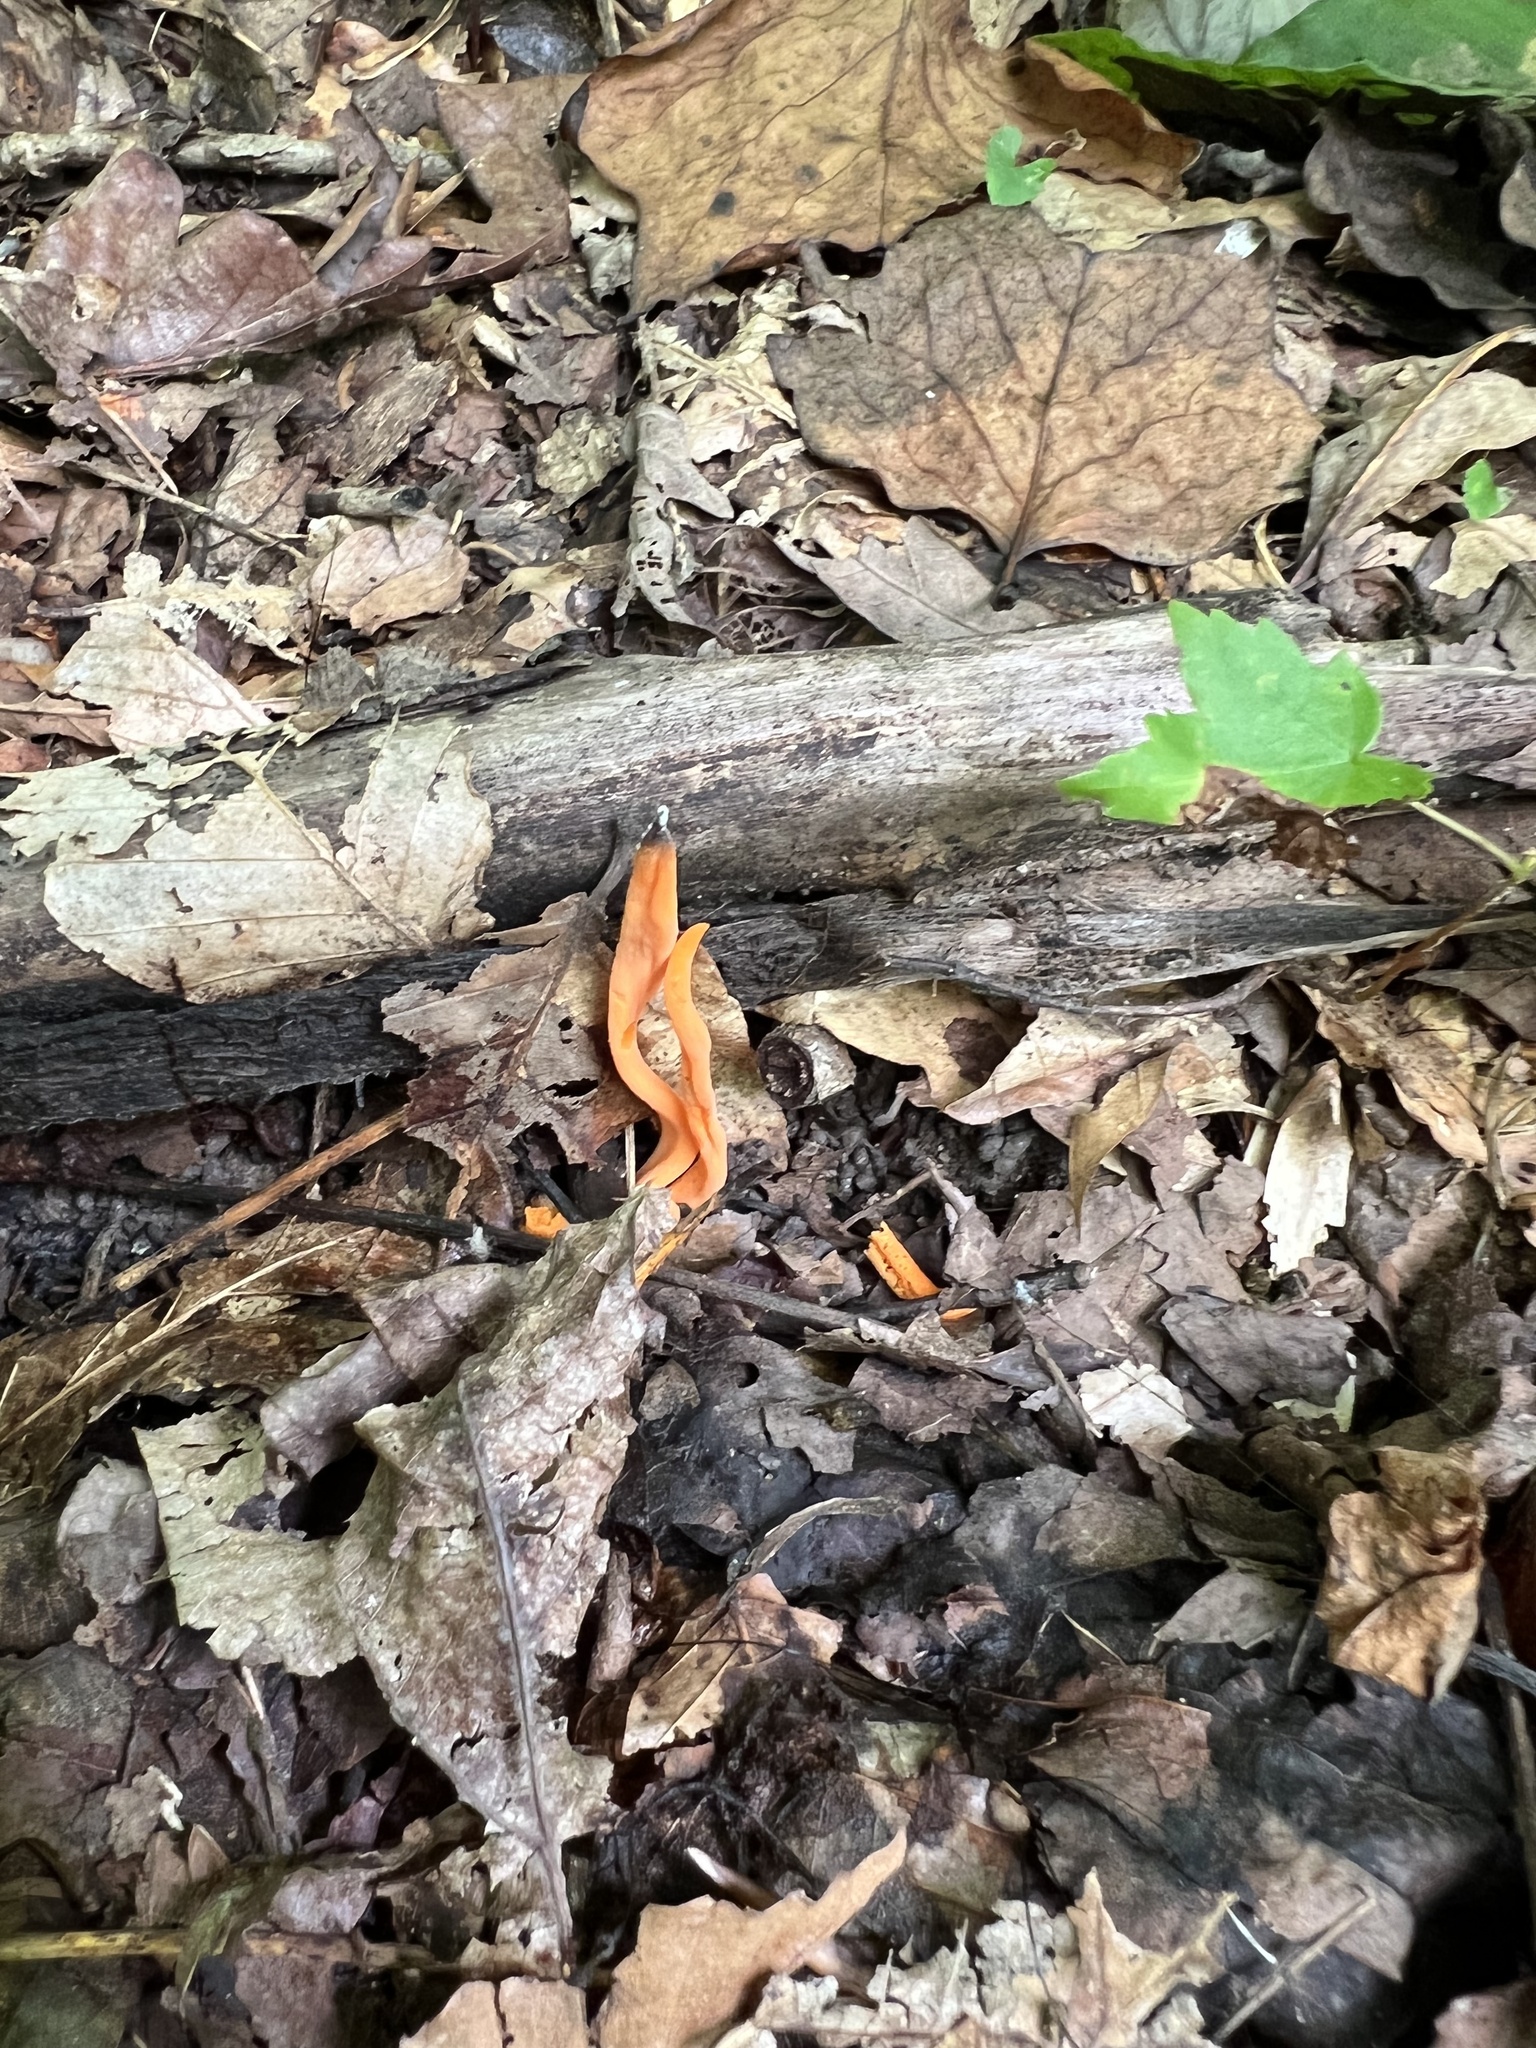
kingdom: Fungi
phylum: Basidiomycota
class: Agaricomycetes
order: Agaricales
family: Clavariaceae
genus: Clavulinopsis
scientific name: Clavulinopsis aurantiocinnabarina
